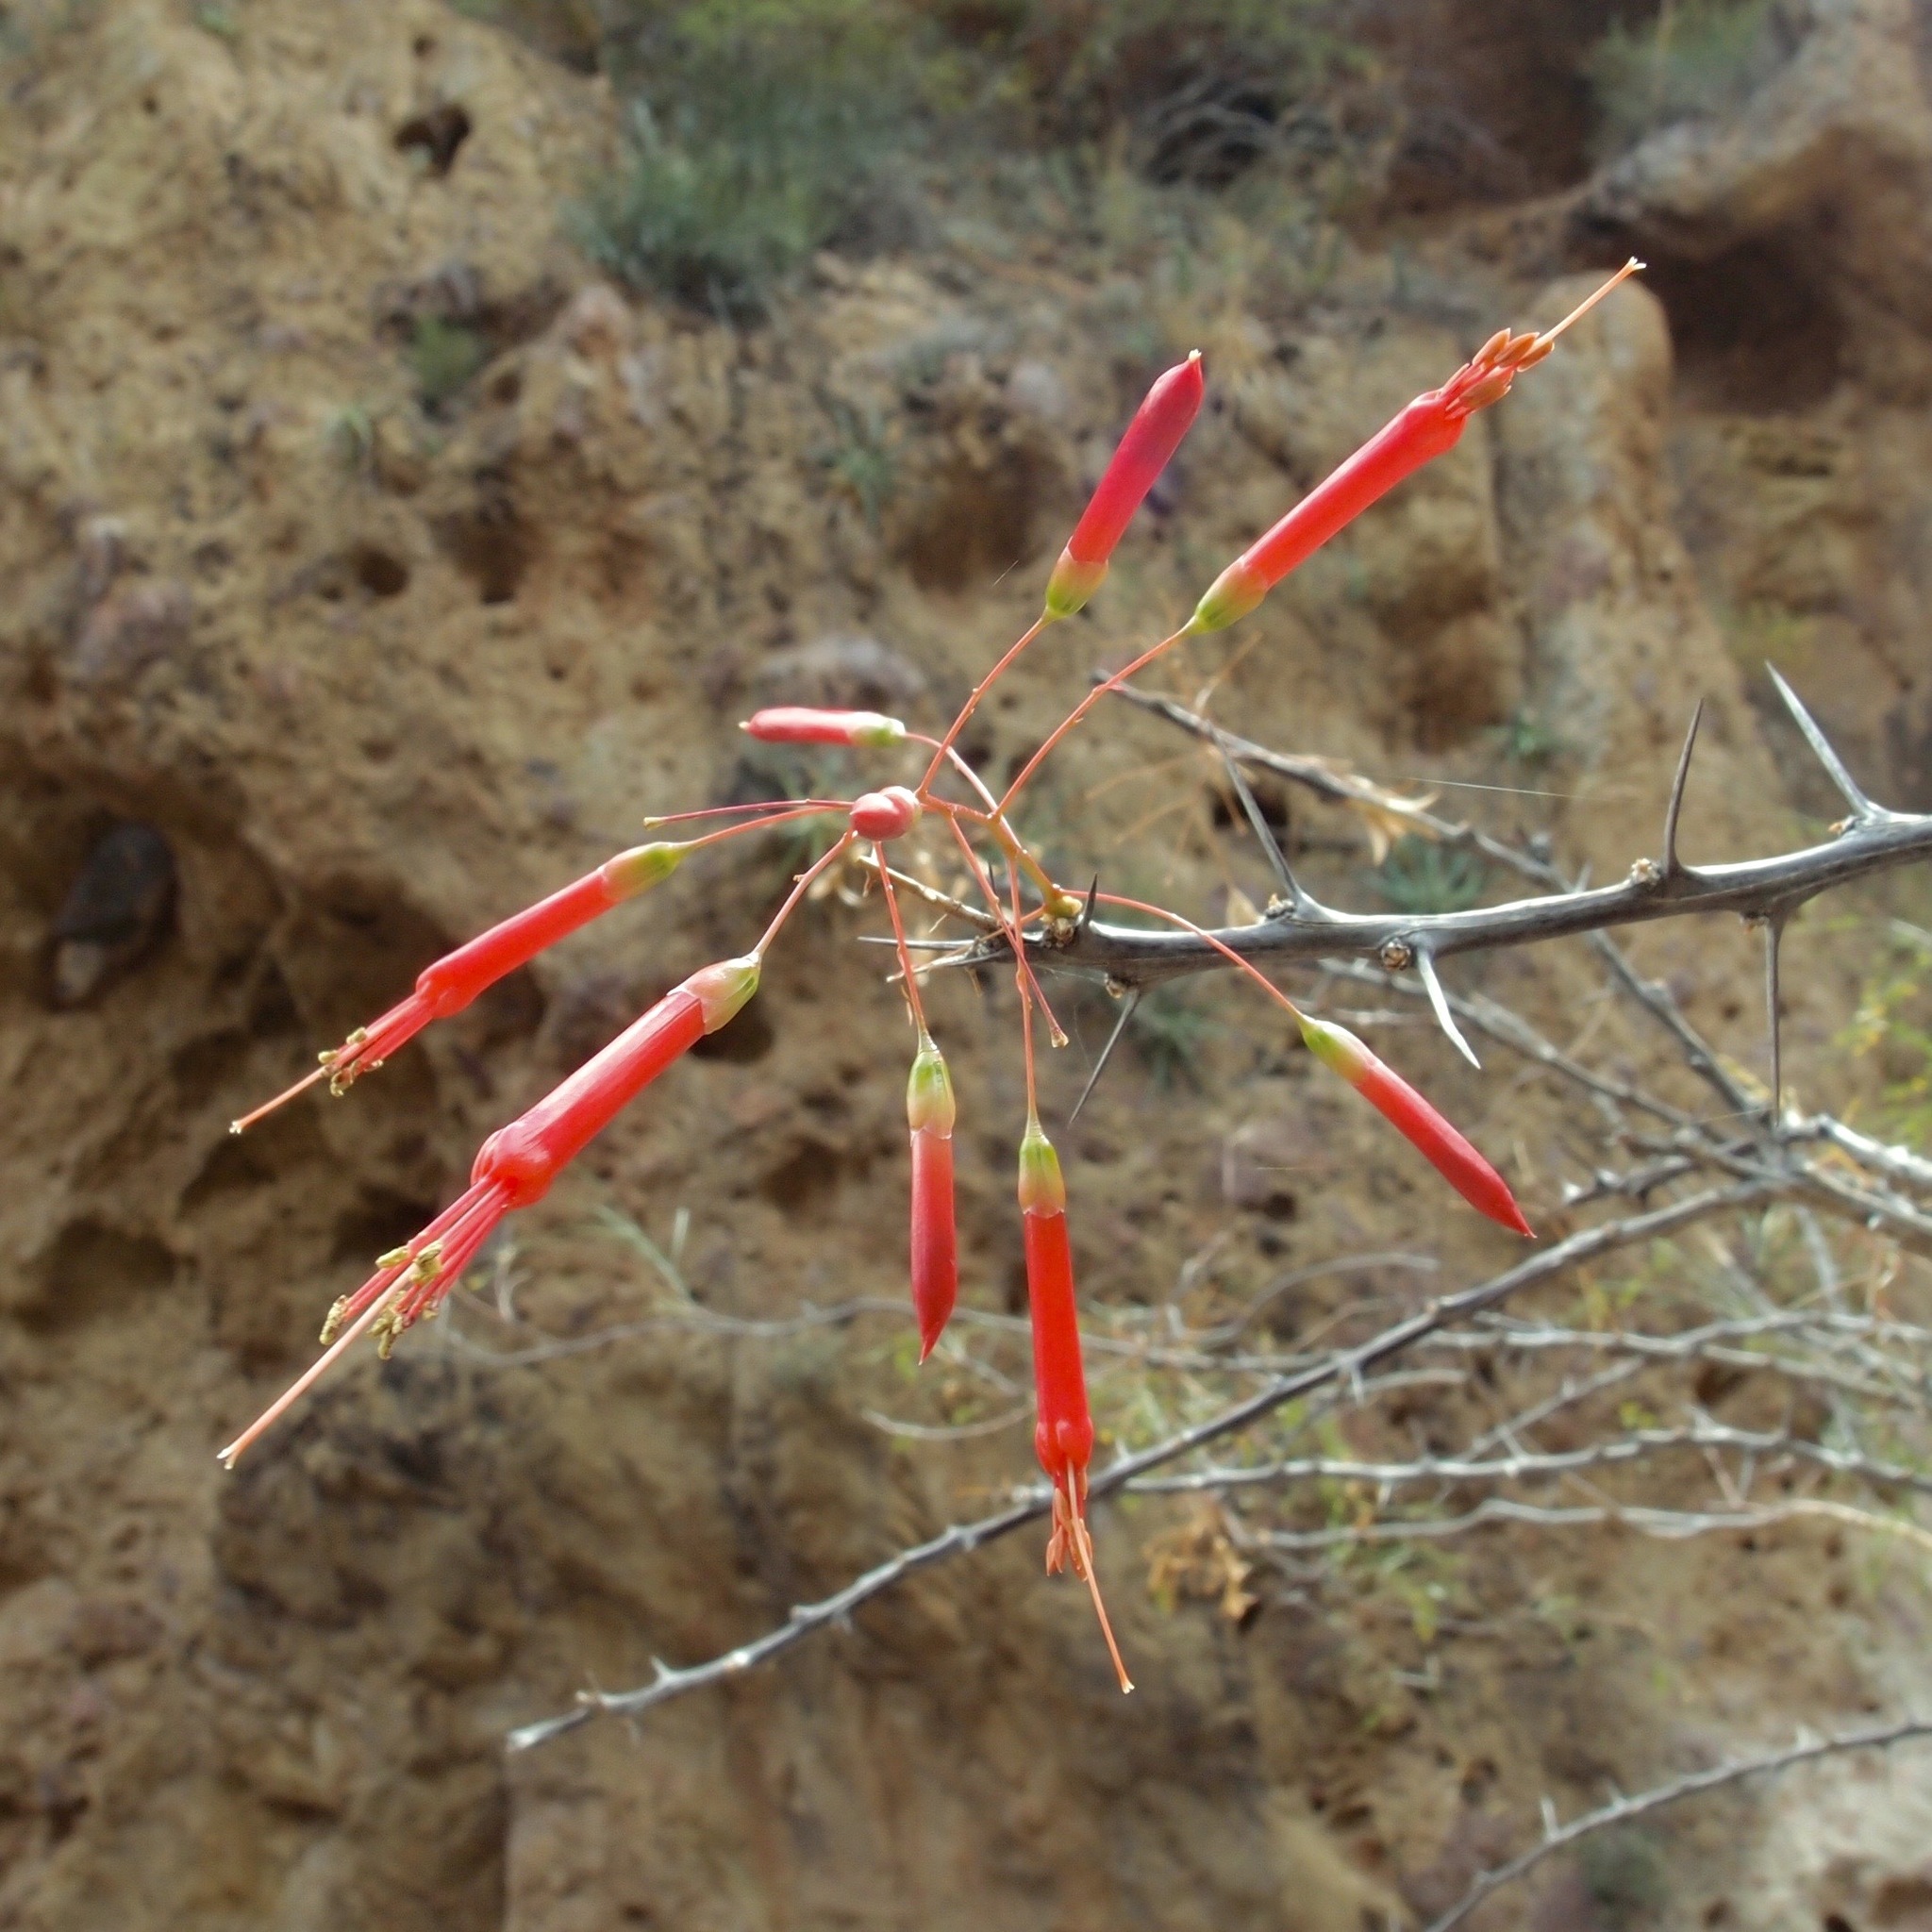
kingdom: Plantae
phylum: Tracheophyta
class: Magnoliopsida
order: Ericales
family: Fouquieriaceae
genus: Fouquieria
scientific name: Fouquieria macdougalii
